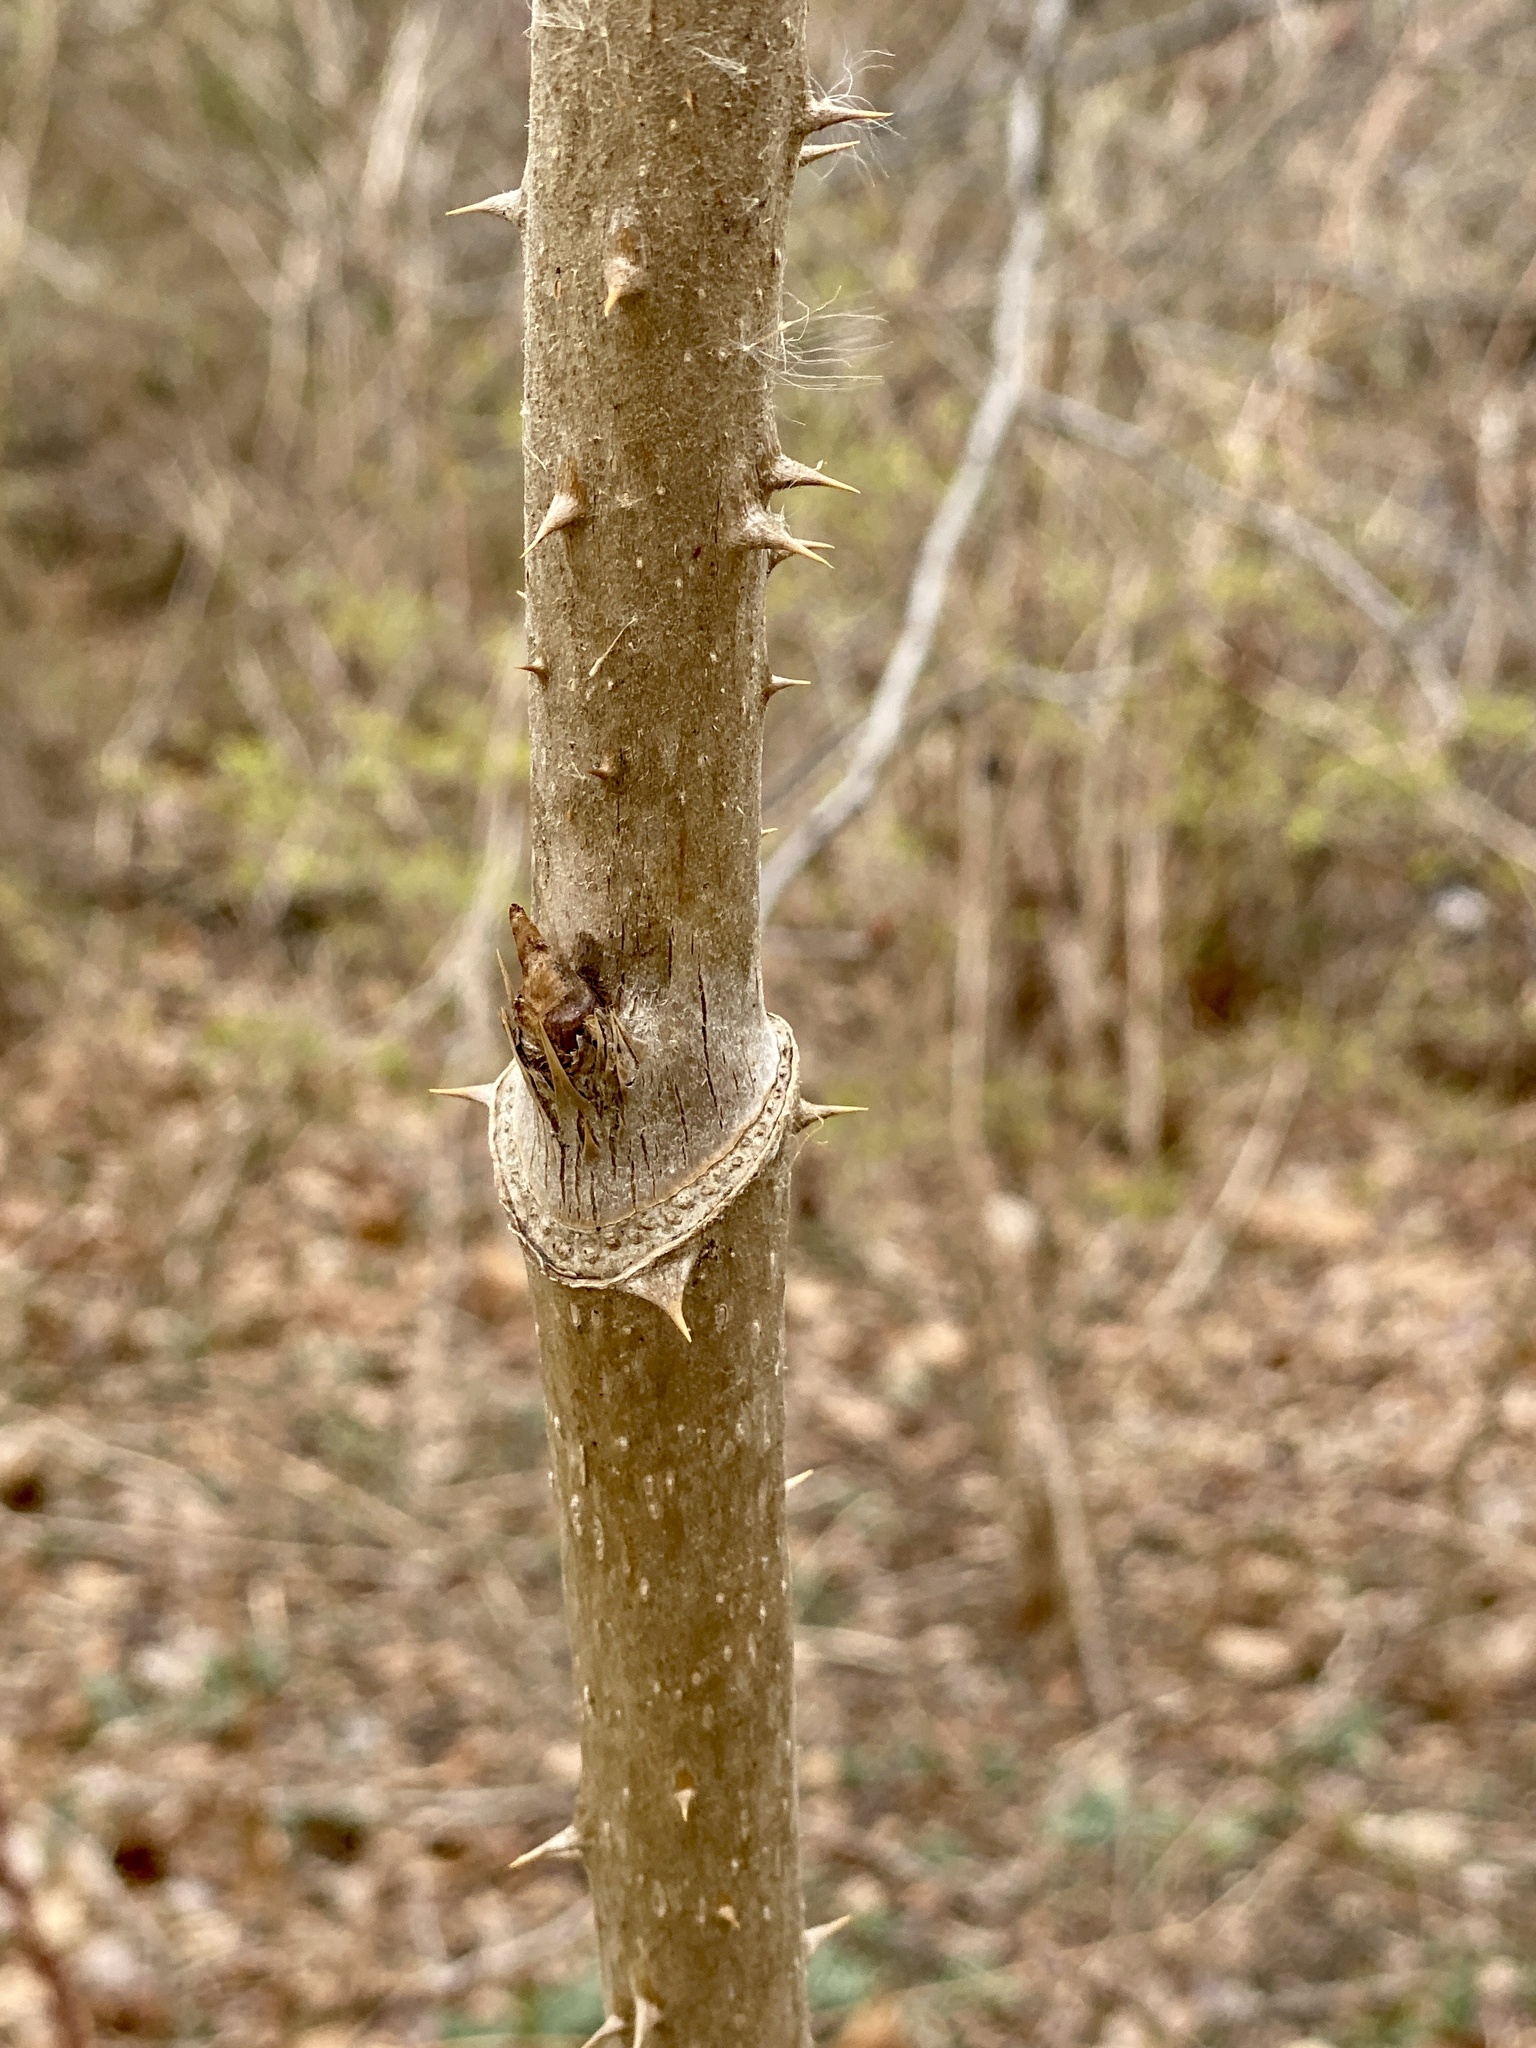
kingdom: Plantae
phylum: Tracheophyta
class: Magnoliopsida
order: Apiales
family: Araliaceae
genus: Aralia
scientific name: Aralia elata
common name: Japanese angelica-tree
